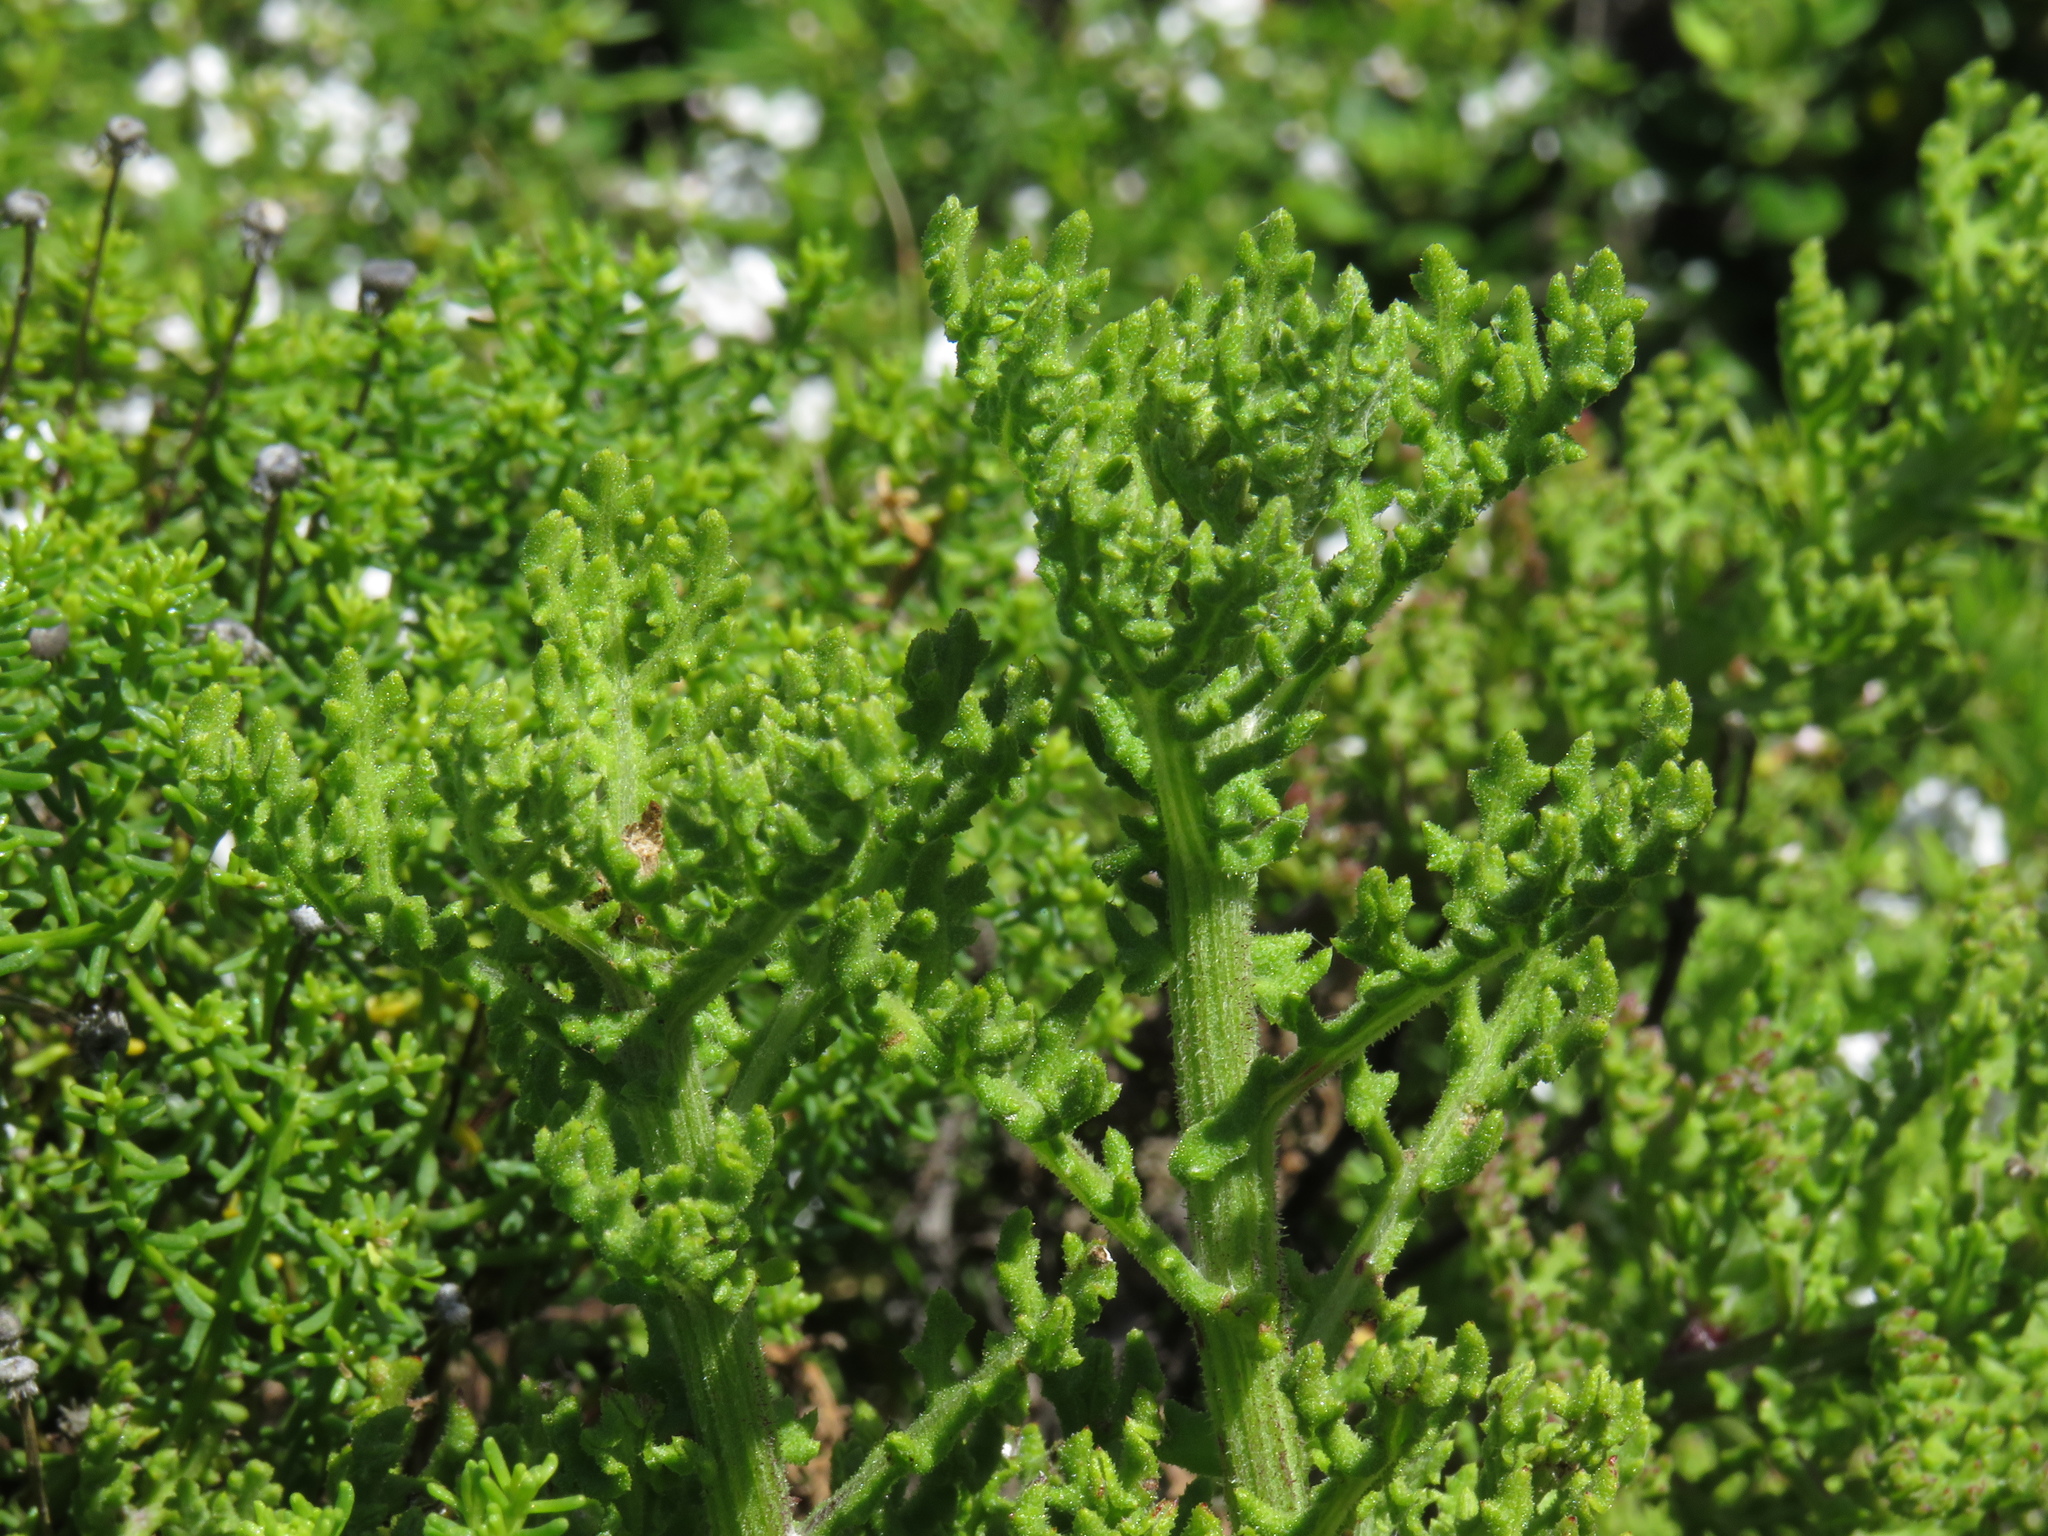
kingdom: Plantae
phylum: Tracheophyta
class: Magnoliopsida
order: Asterales
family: Asteraceae
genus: Arctotis
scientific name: Arctotis aspera
